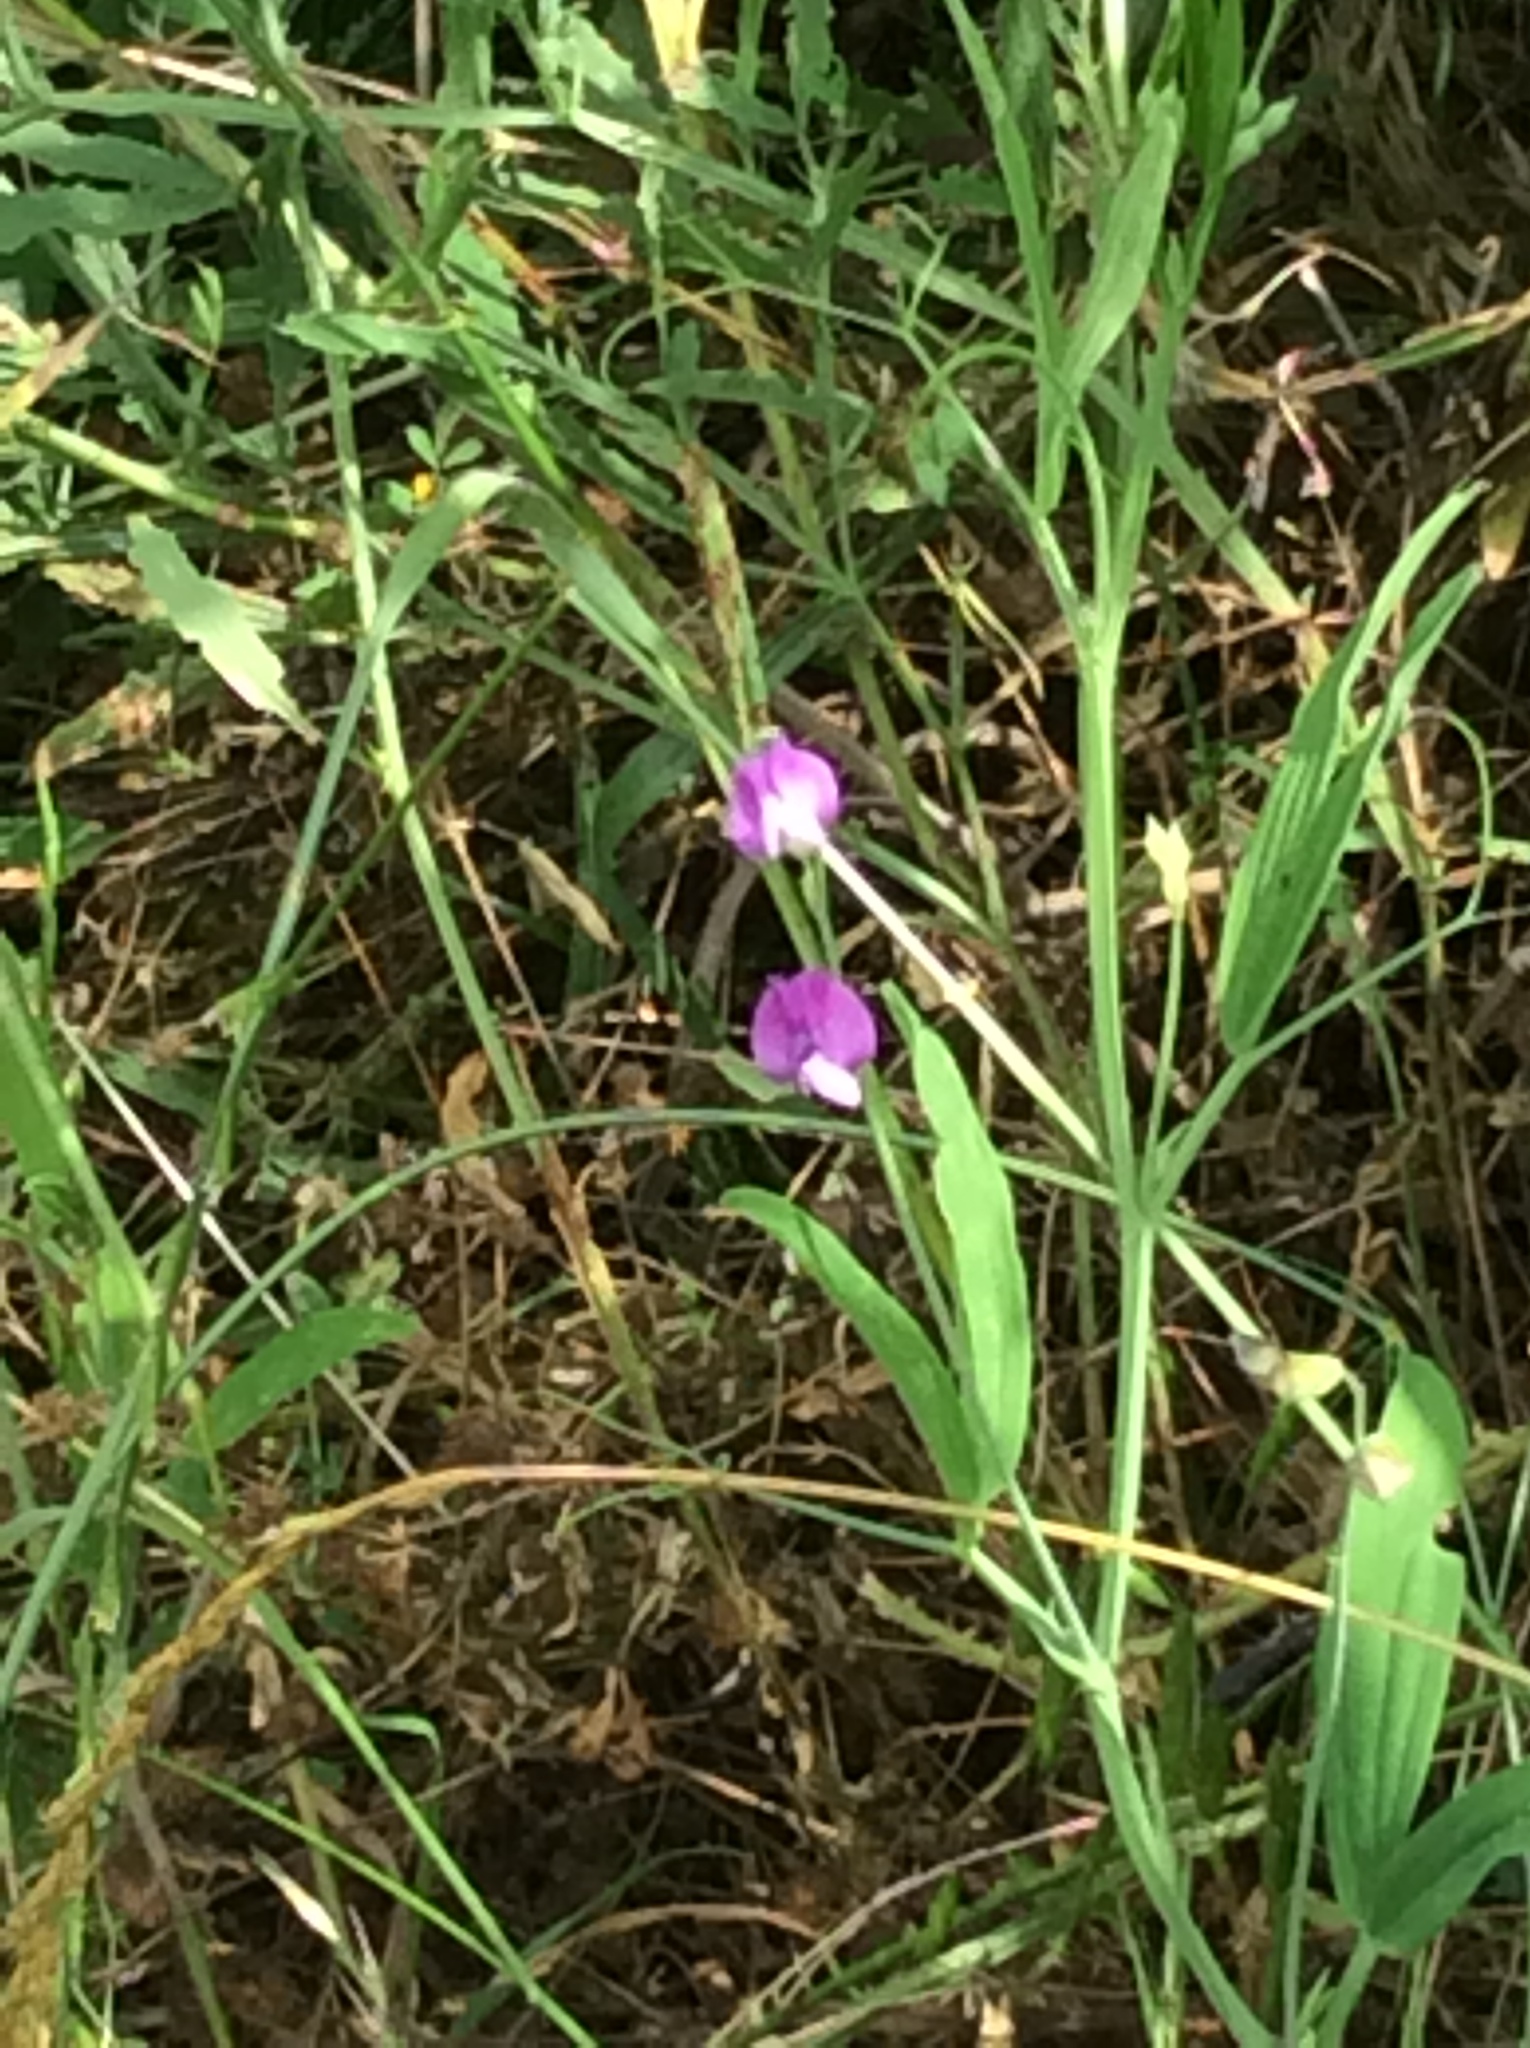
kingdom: Plantae
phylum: Tracheophyta
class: Magnoliopsida
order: Fabales
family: Fabaceae
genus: Lathyrus
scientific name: Lathyrus hirsutus
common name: Hairy vetchling
